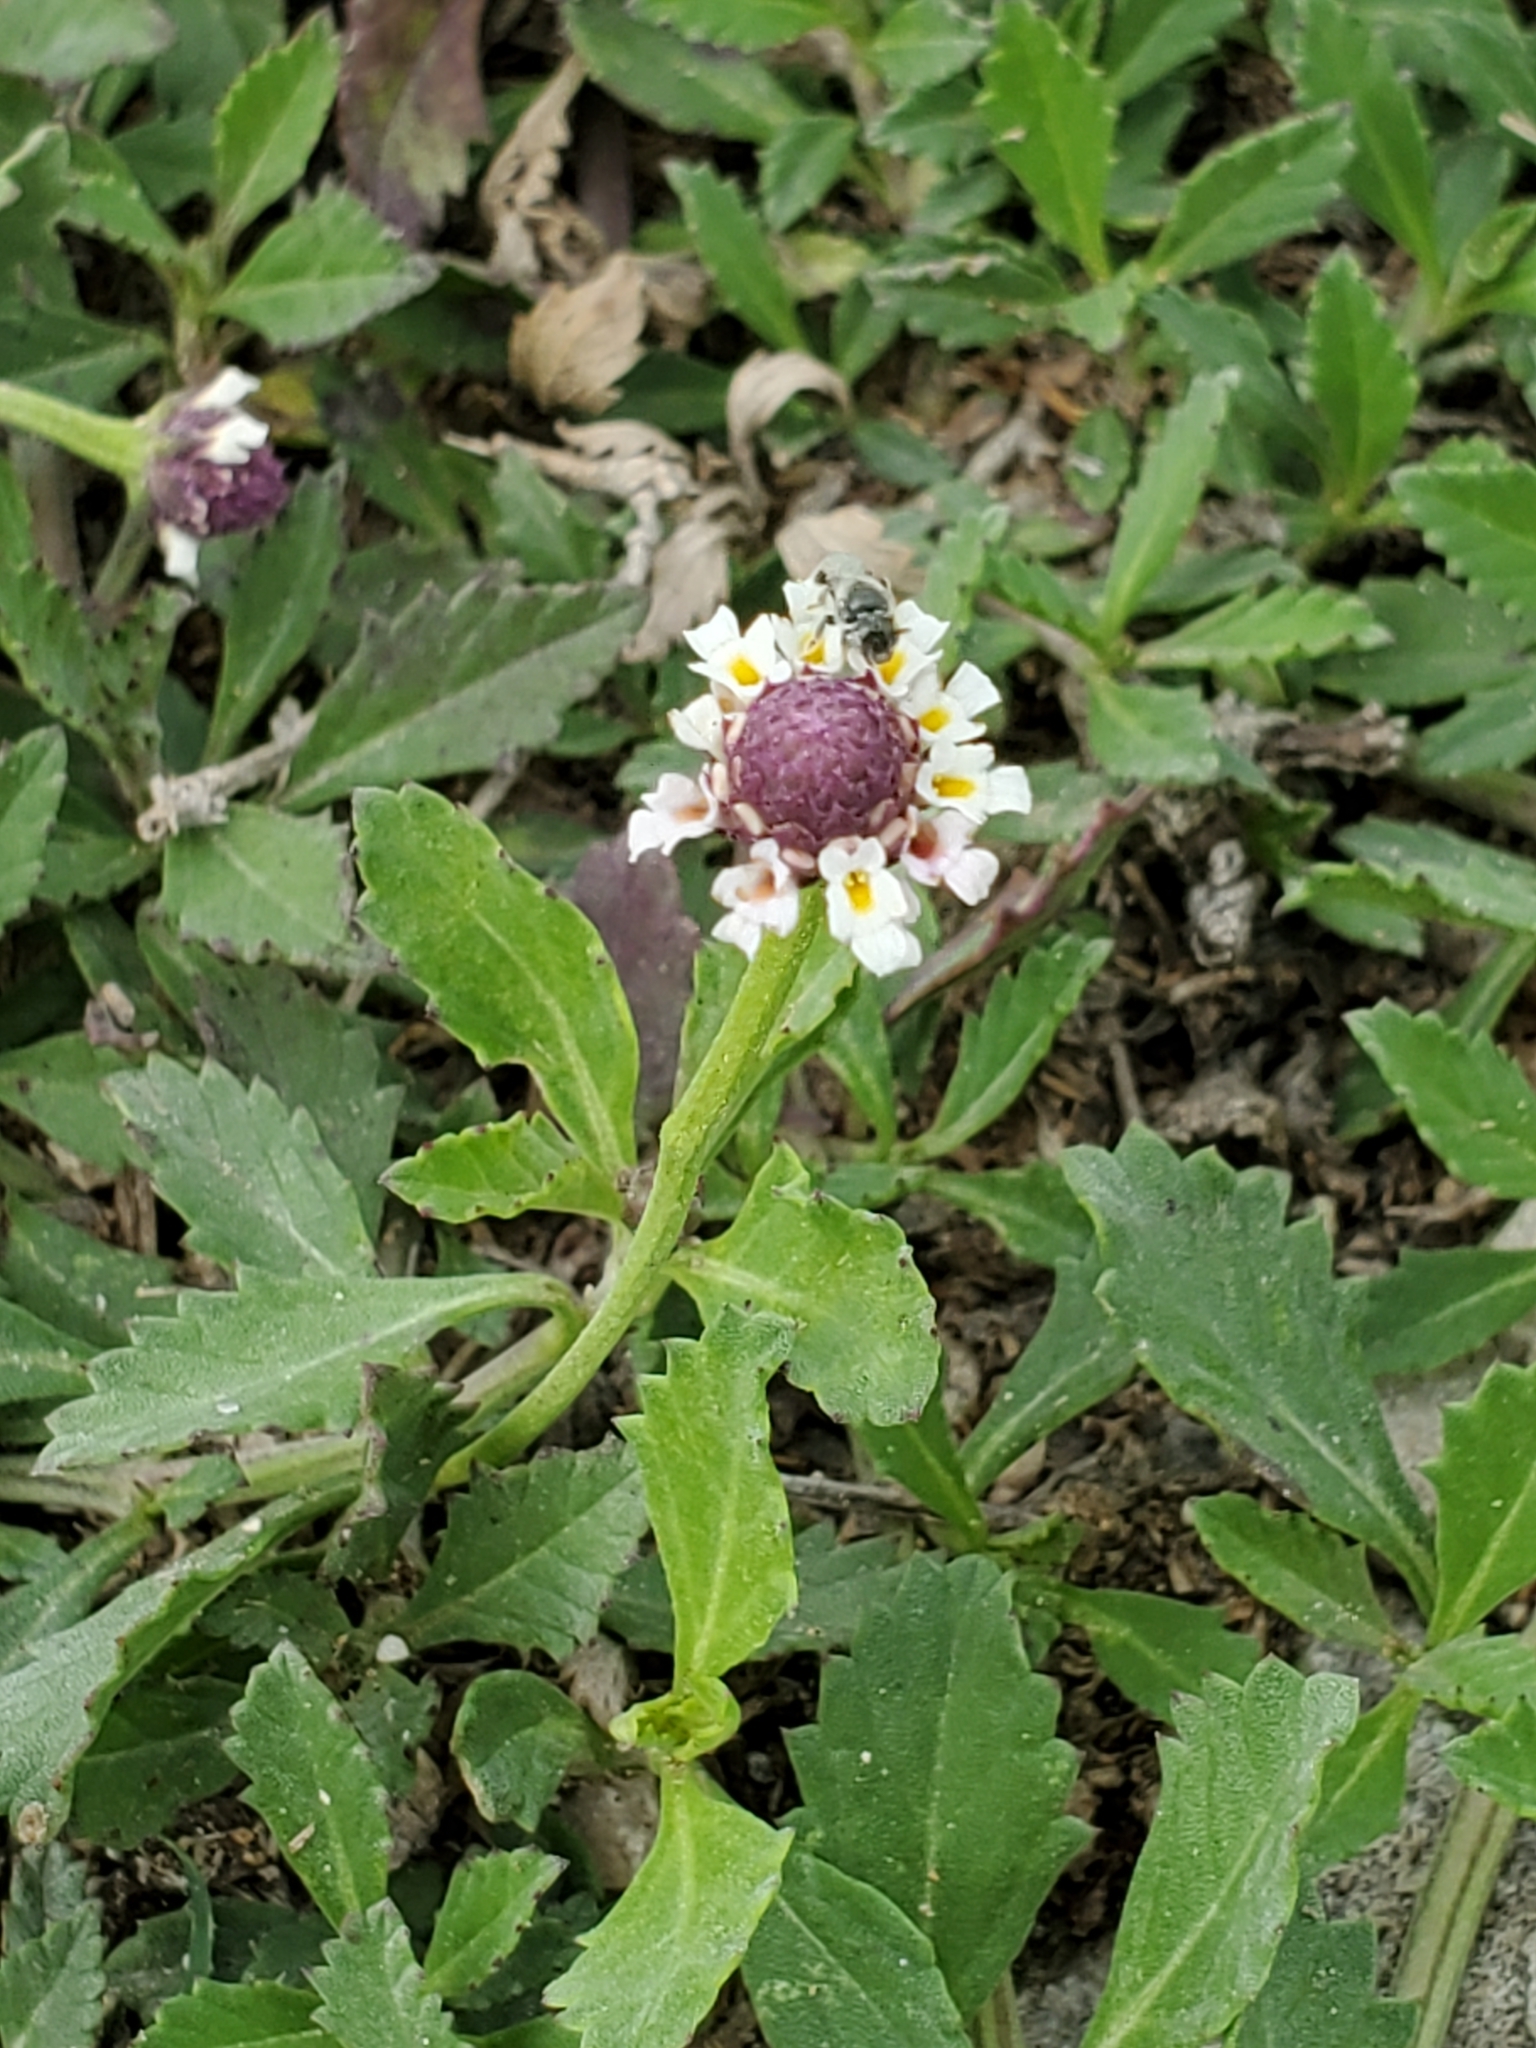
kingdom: Plantae
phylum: Tracheophyta
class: Magnoliopsida
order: Lamiales
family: Verbenaceae
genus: Phyla
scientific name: Phyla nodiflora
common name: Frogfruit
